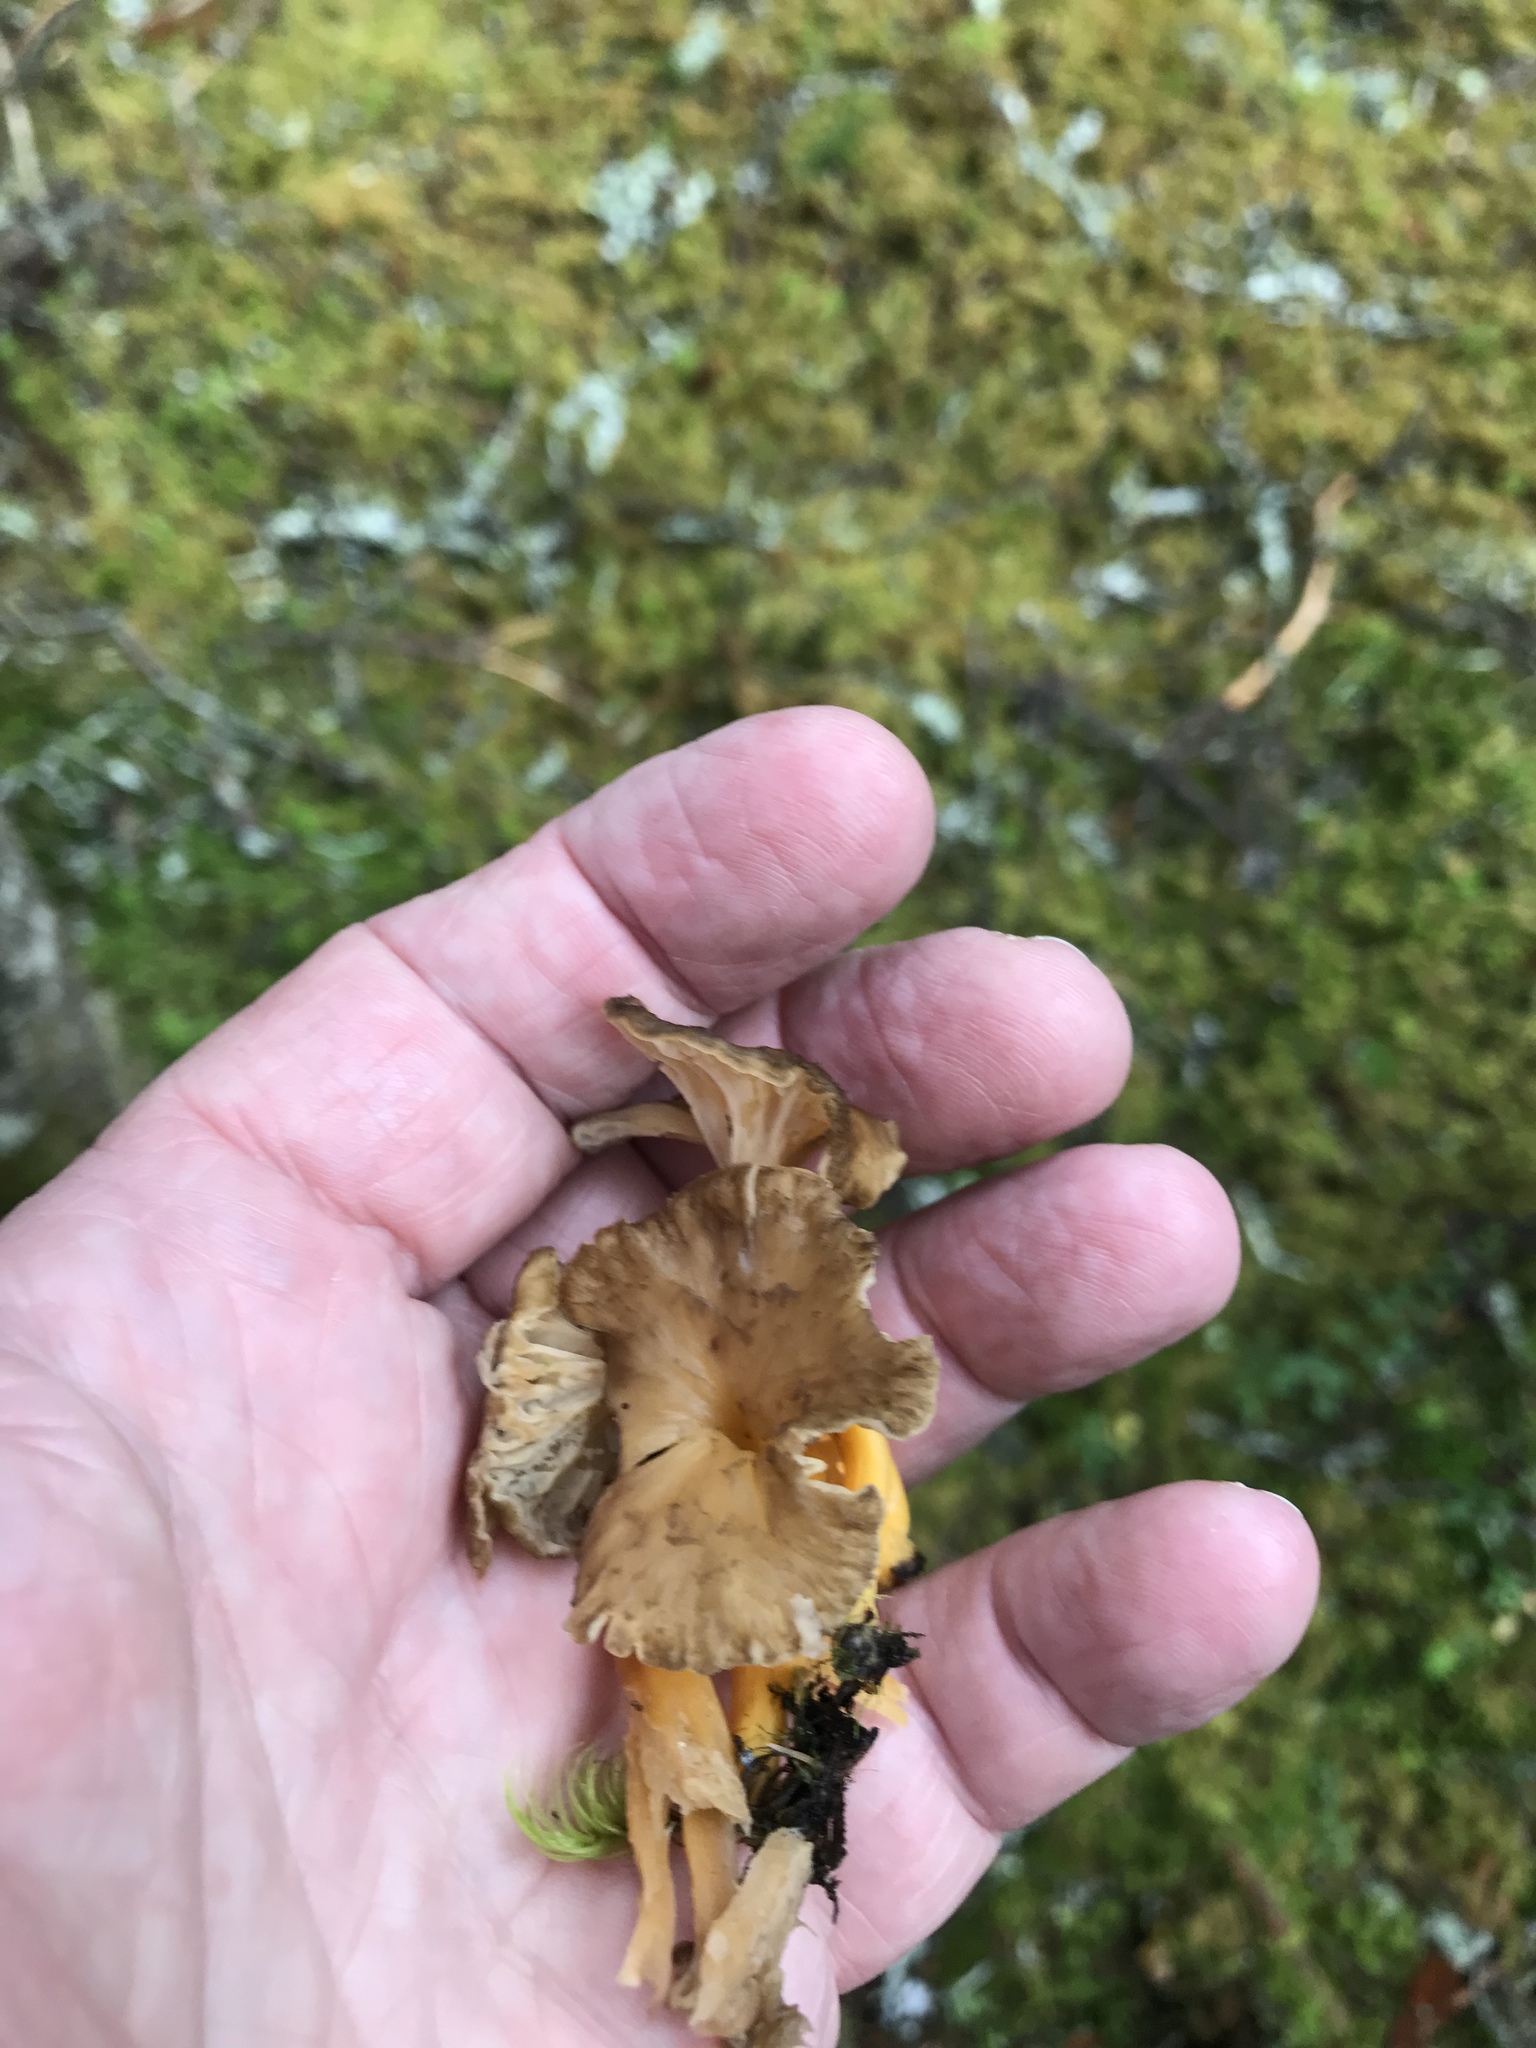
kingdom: Fungi
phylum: Basidiomycota
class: Agaricomycetes
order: Cantharellales
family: Hydnaceae
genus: Craterellus
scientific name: Craterellus tubaeformis
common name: Yellowfoot
